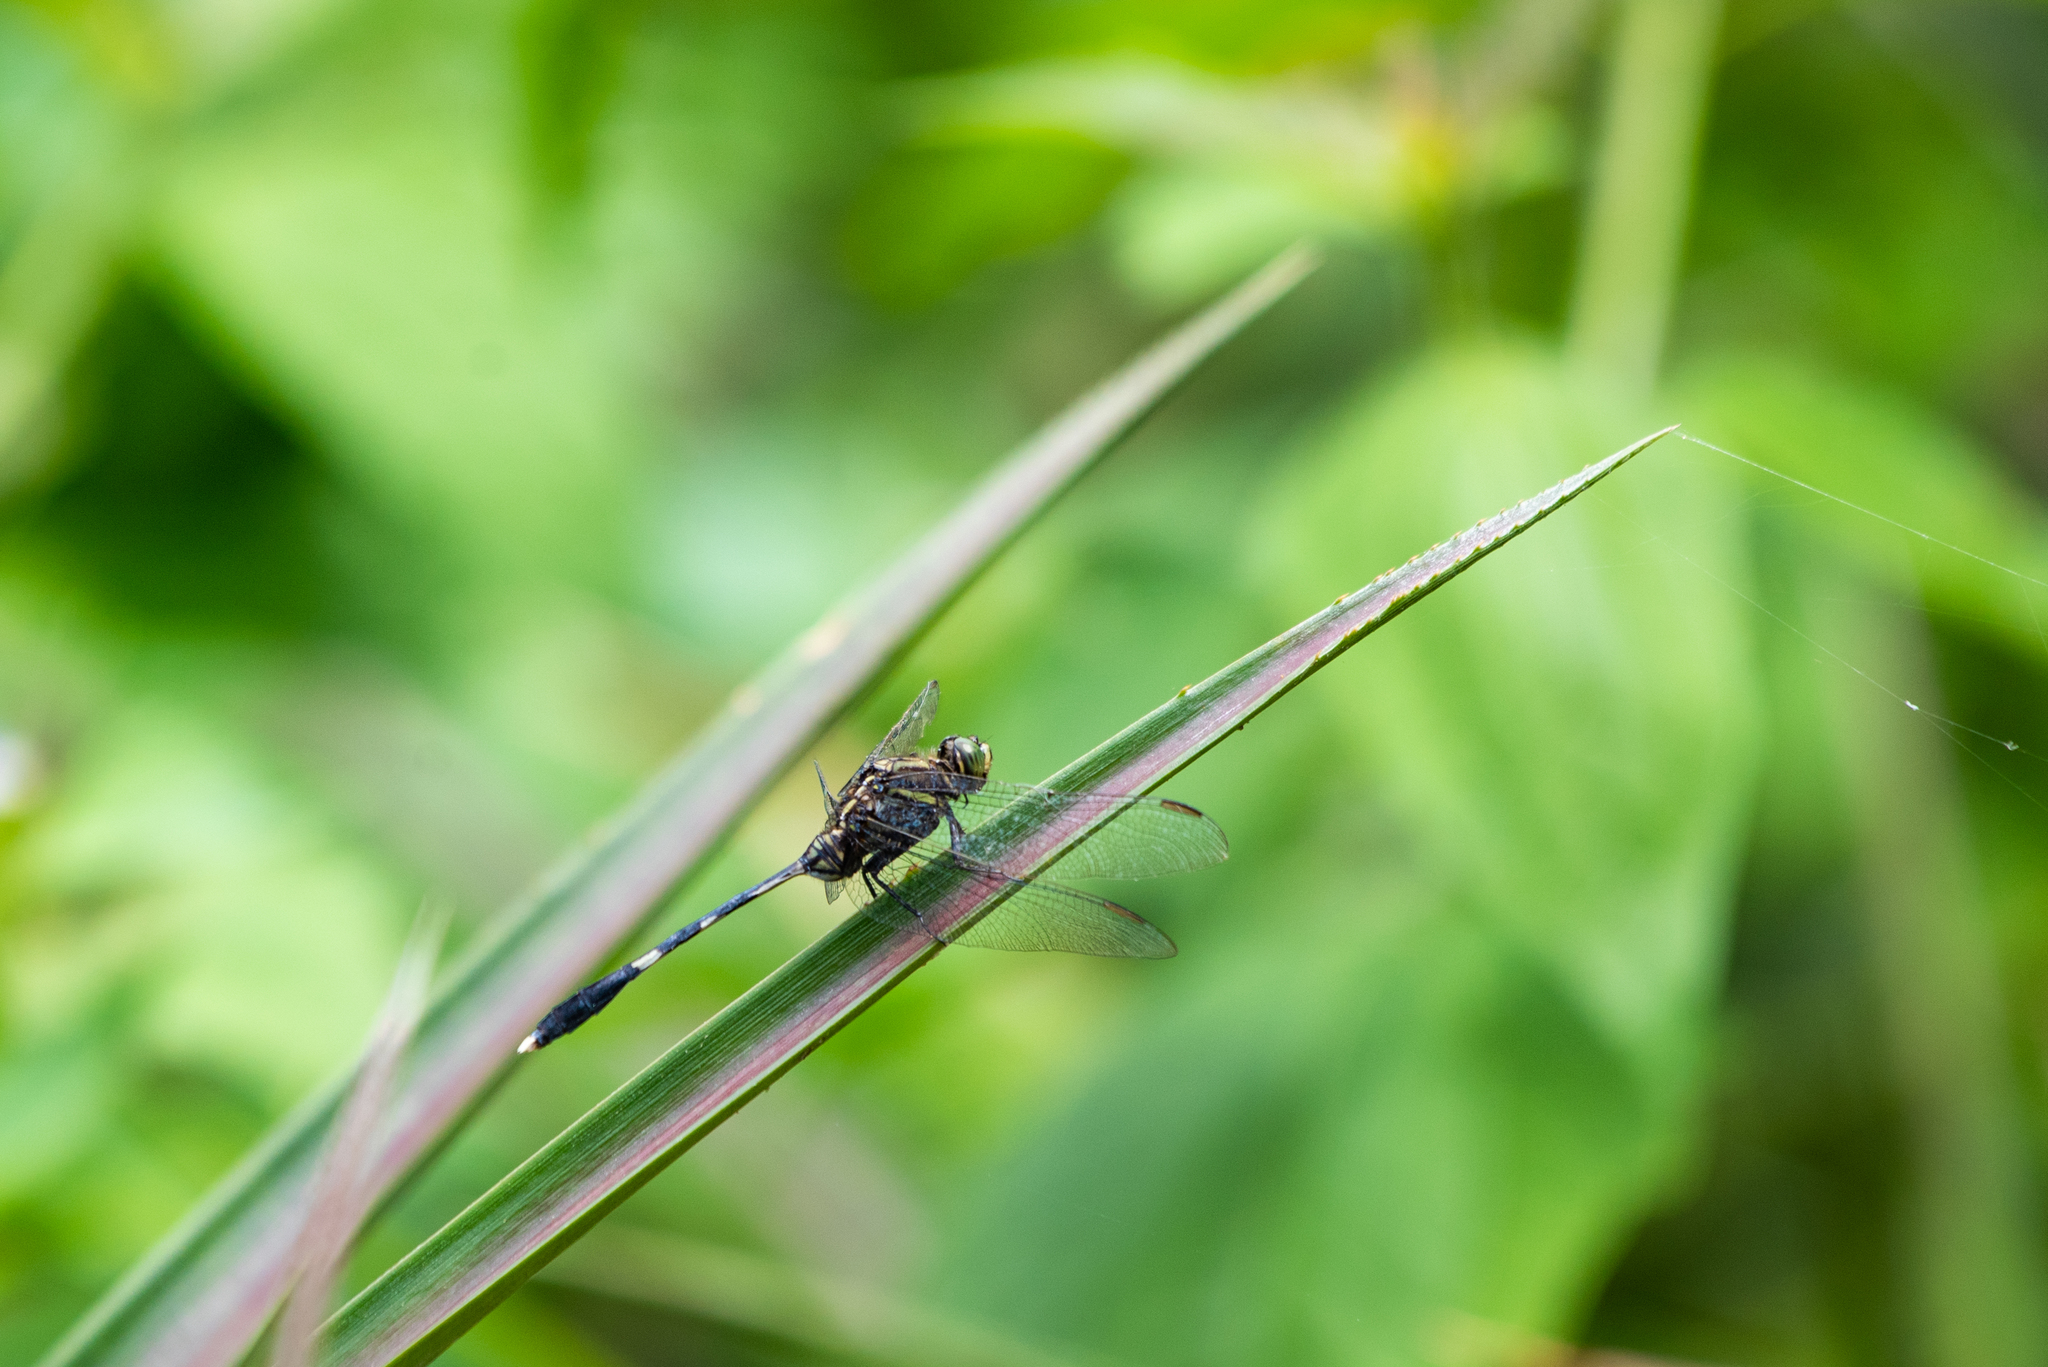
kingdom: Animalia
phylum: Arthropoda
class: Insecta
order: Odonata
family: Libellulidae
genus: Orthetrum
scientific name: Orthetrum sabina
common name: Slender skimmer
